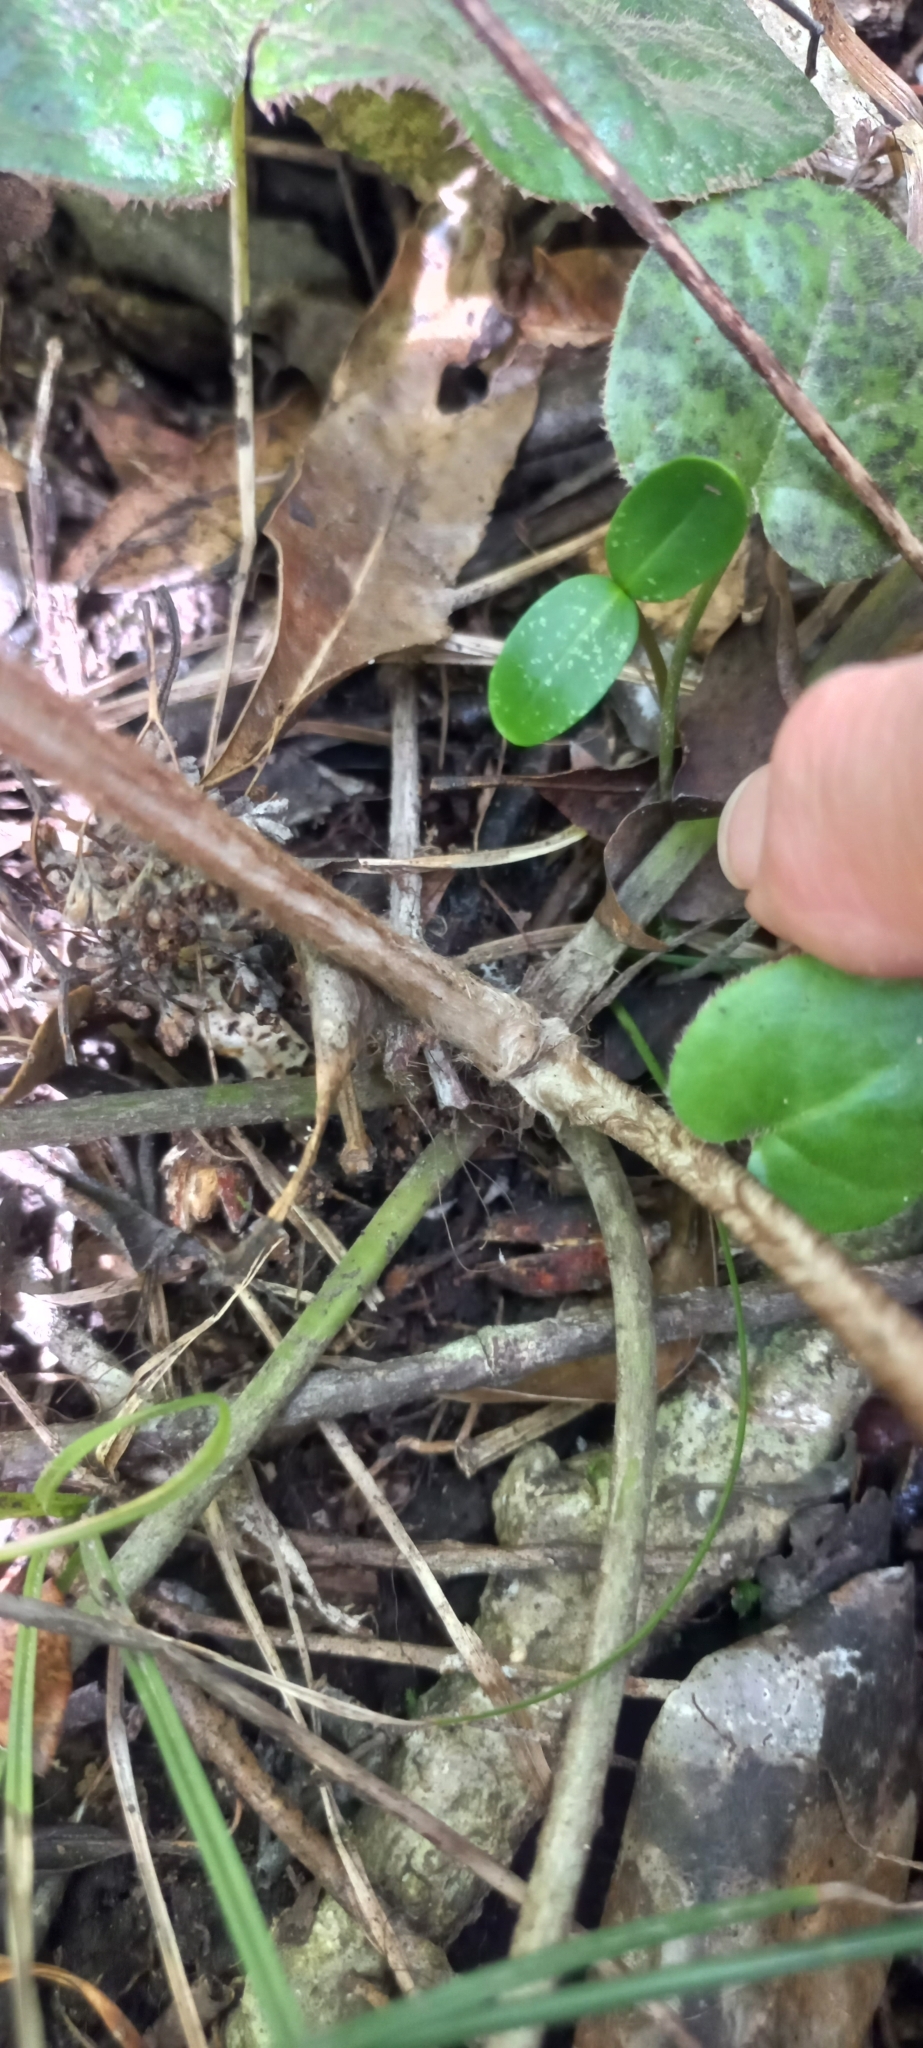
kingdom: Plantae
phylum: Tracheophyta
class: Magnoliopsida
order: Asterales
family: Asteraceae
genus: Piloselloides
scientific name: Piloselloides cordata
